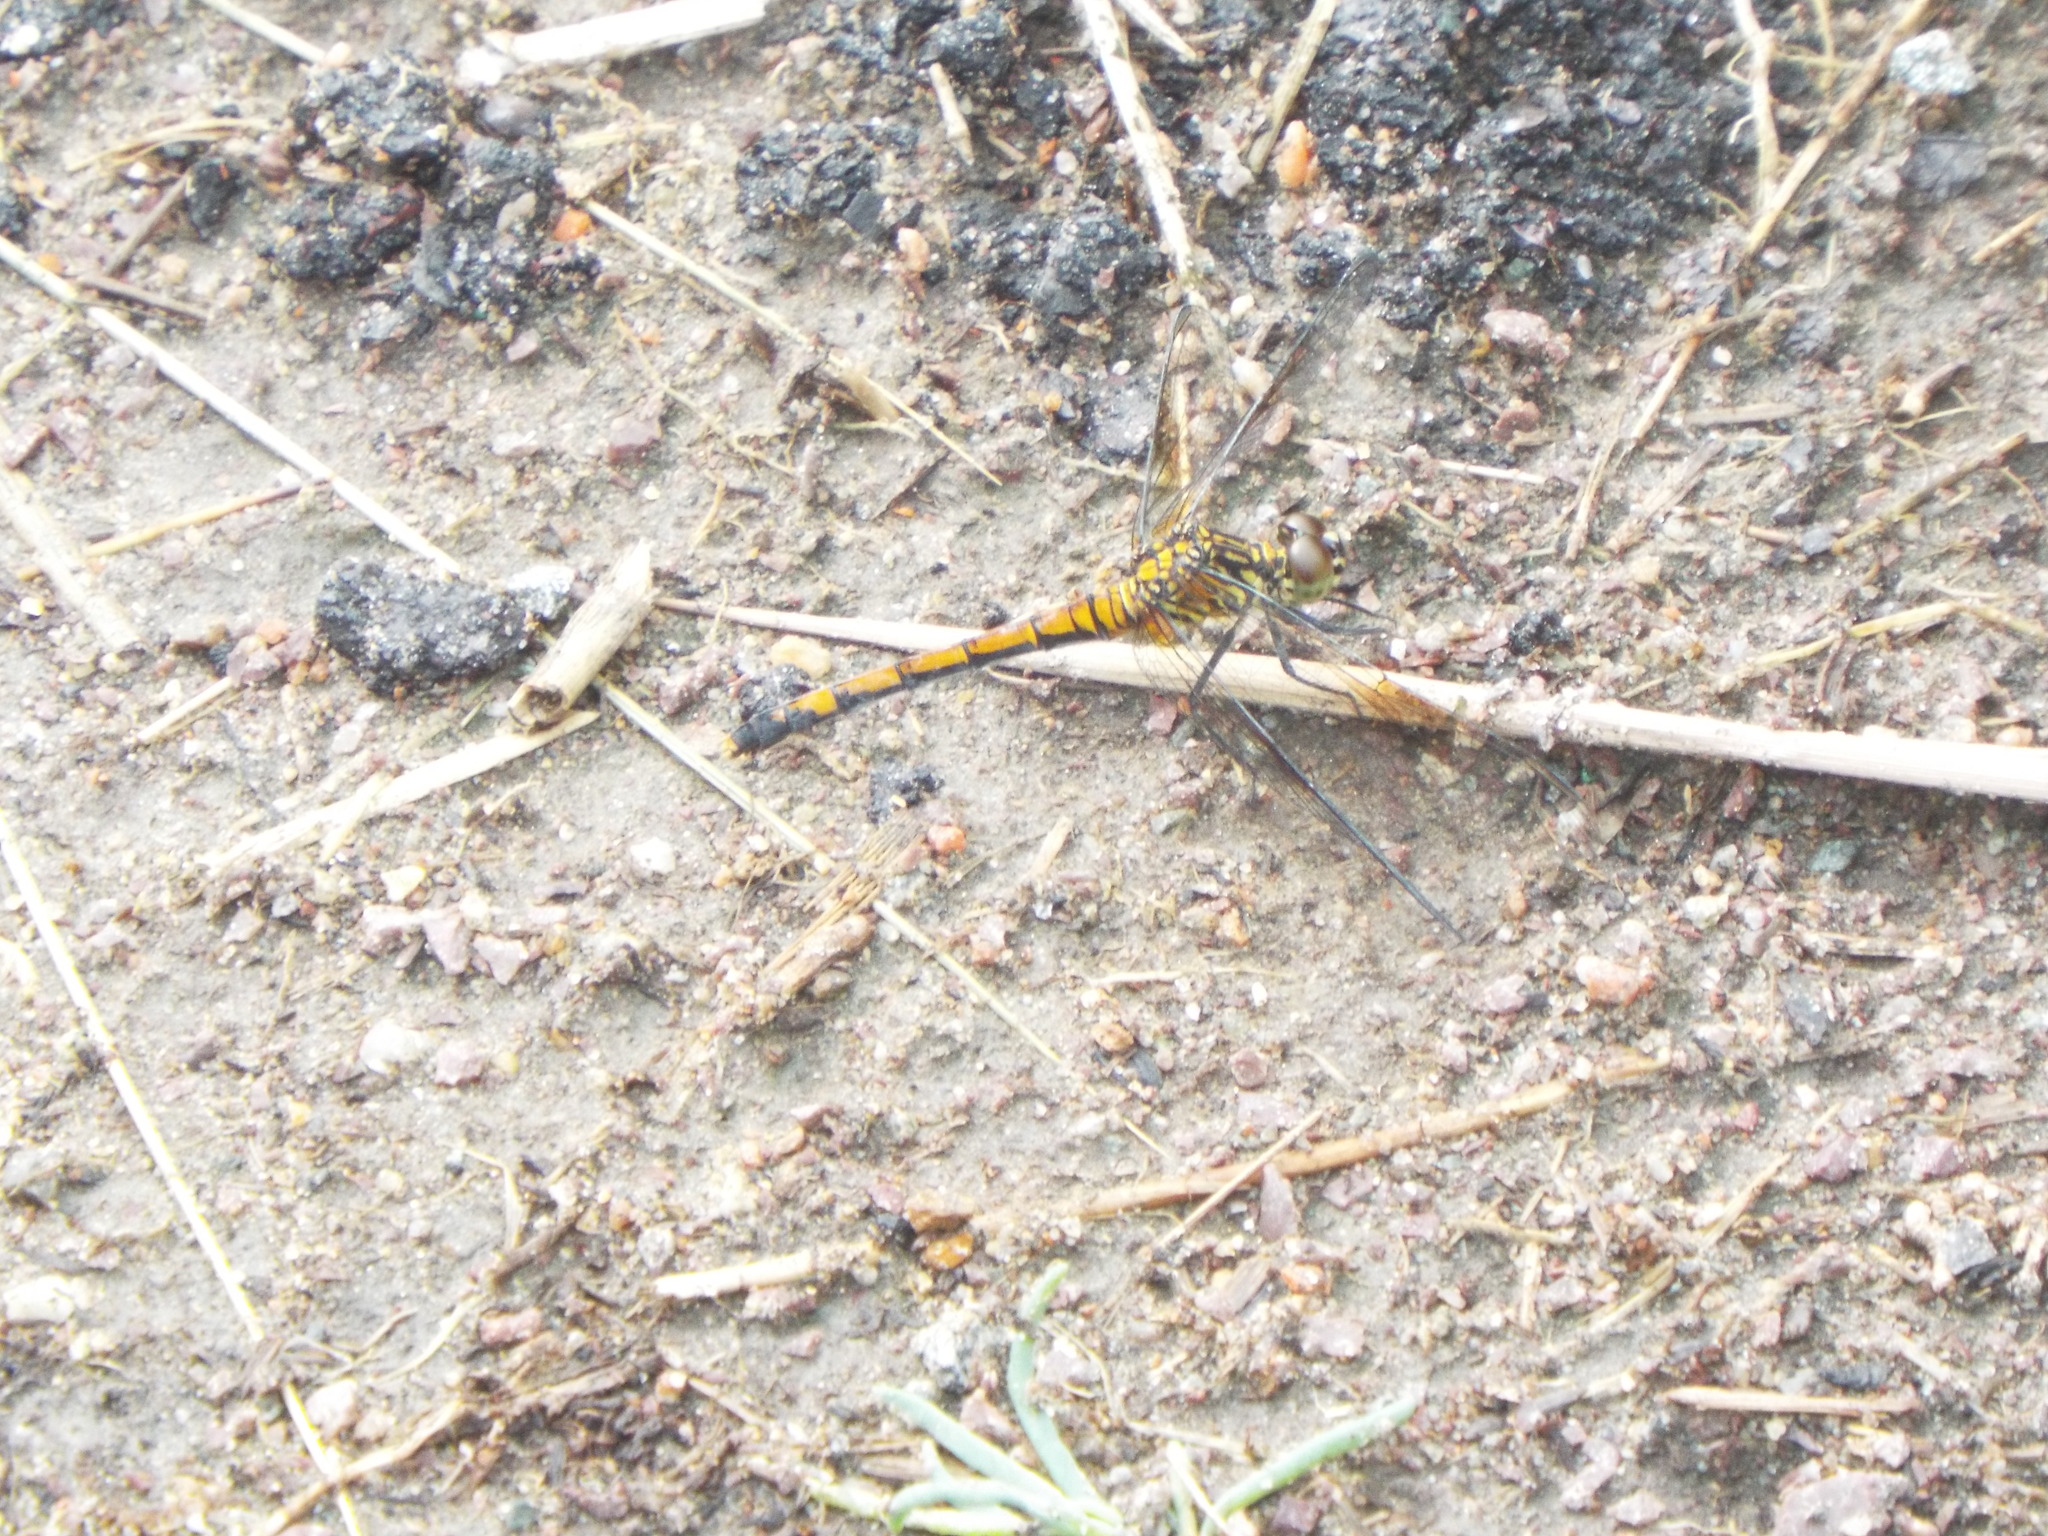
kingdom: Animalia
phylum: Arthropoda
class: Insecta
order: Odonata
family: Libellulidae
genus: Erythrodiplax
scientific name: Erythrodiplax berenice
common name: Seaside dragonlet
